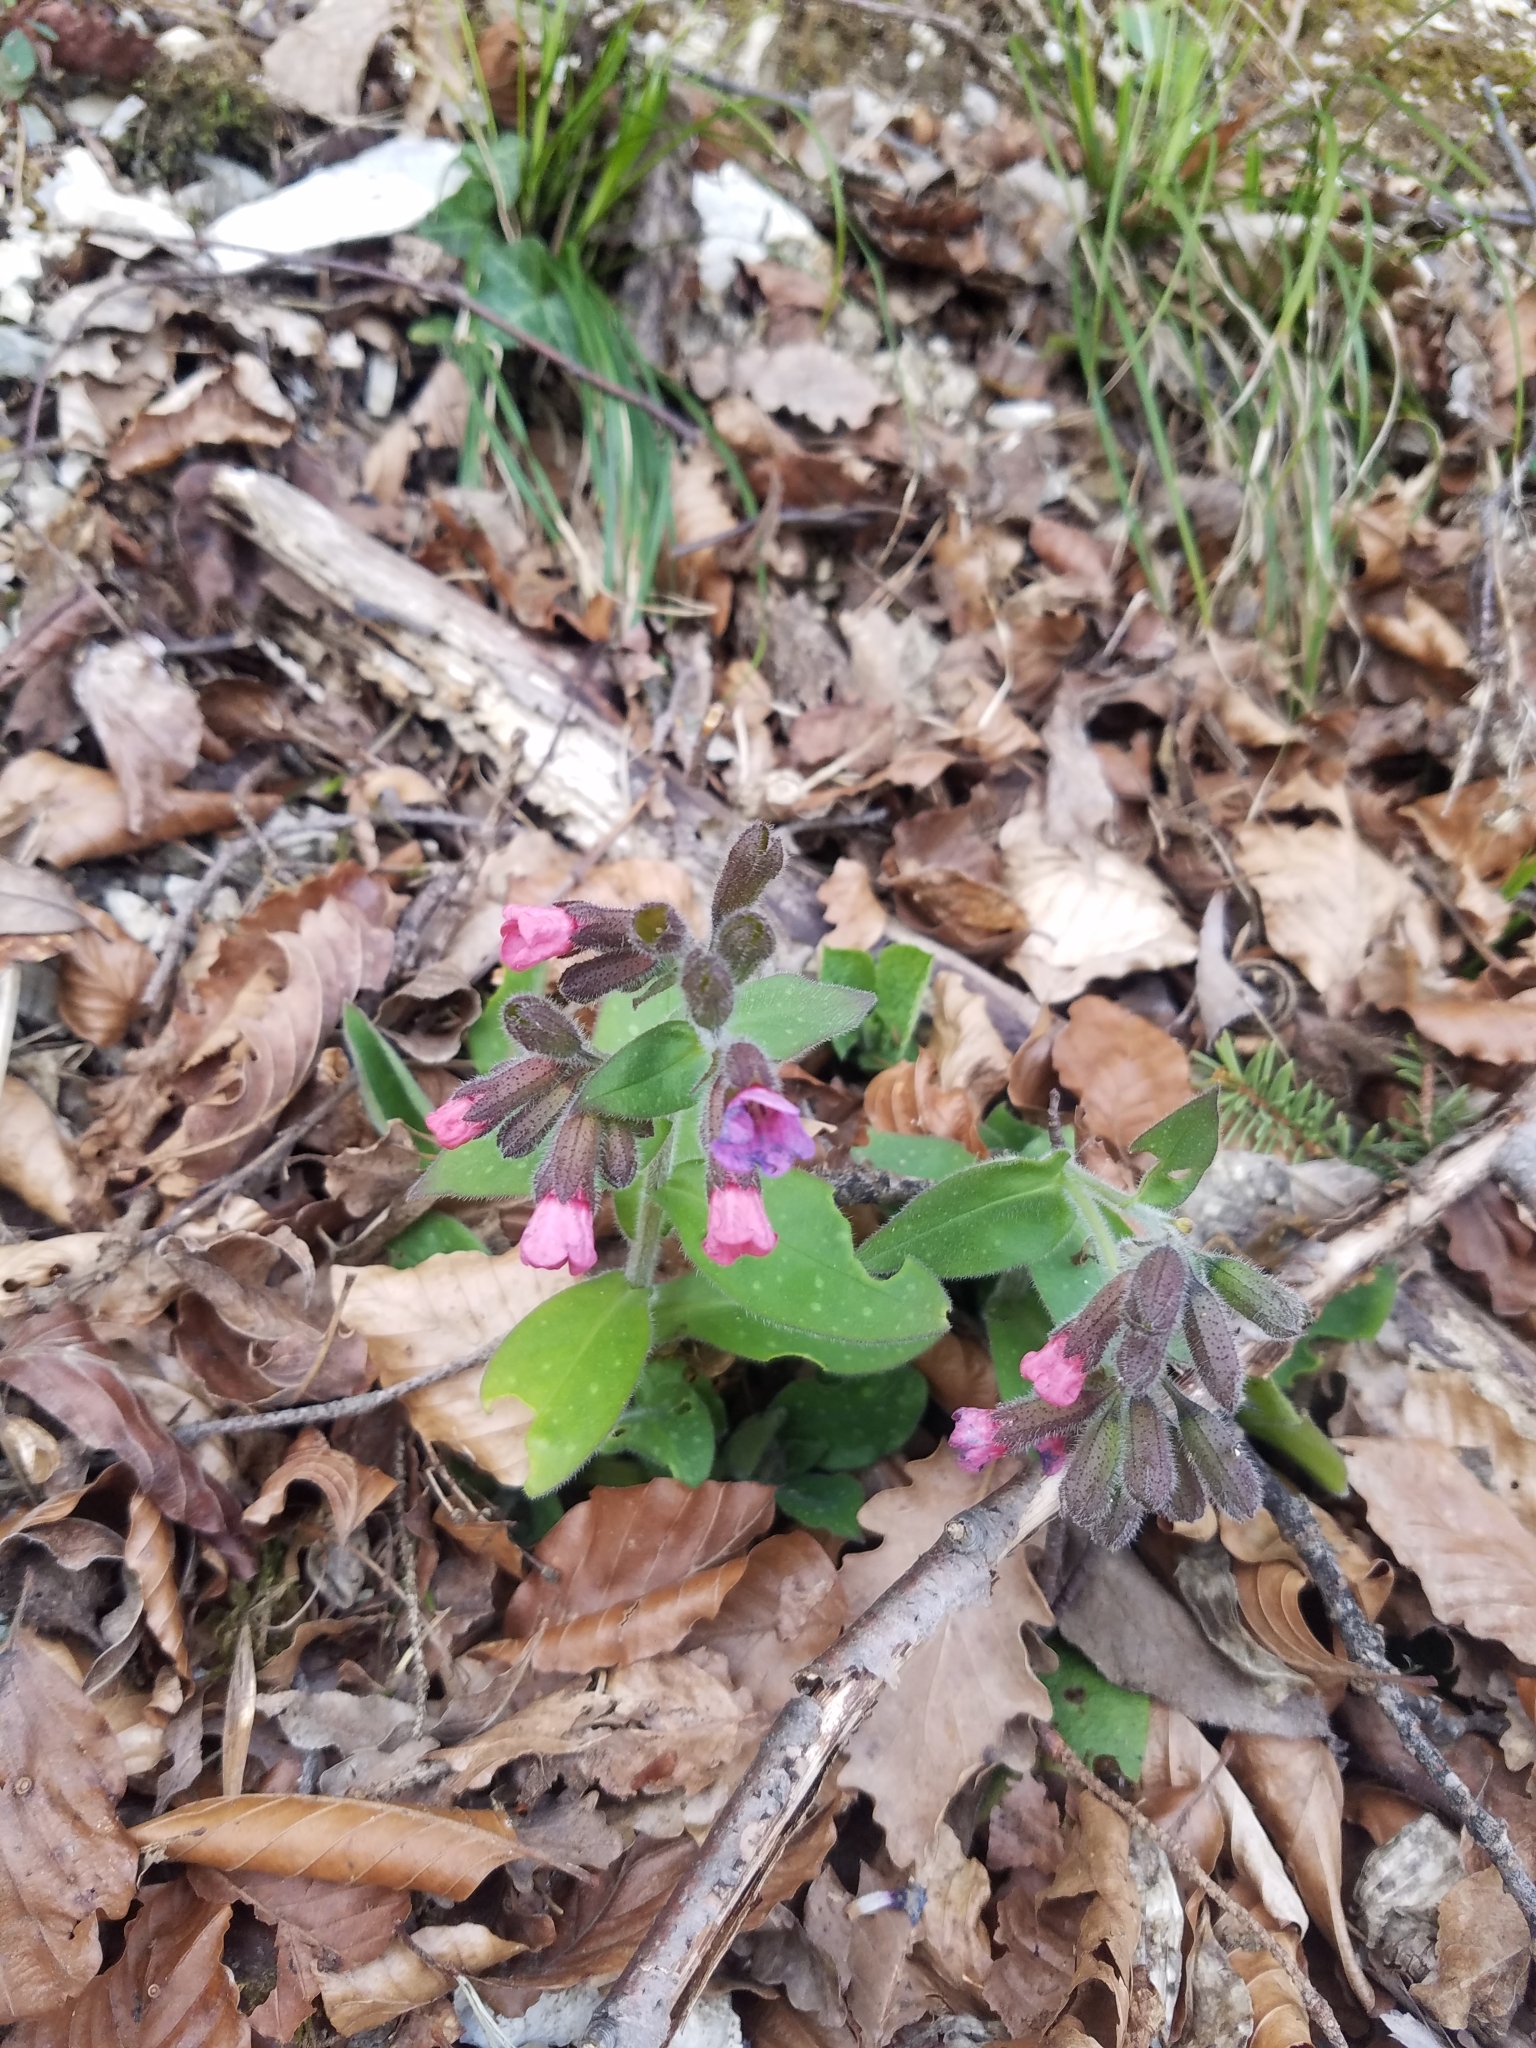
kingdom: Plantae
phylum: Tracheophyta
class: Magnoliopsida
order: Boraginales
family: Boraginaceae
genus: Pulmonaria
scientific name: Pulmonaria officinalis
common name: Lungwort
